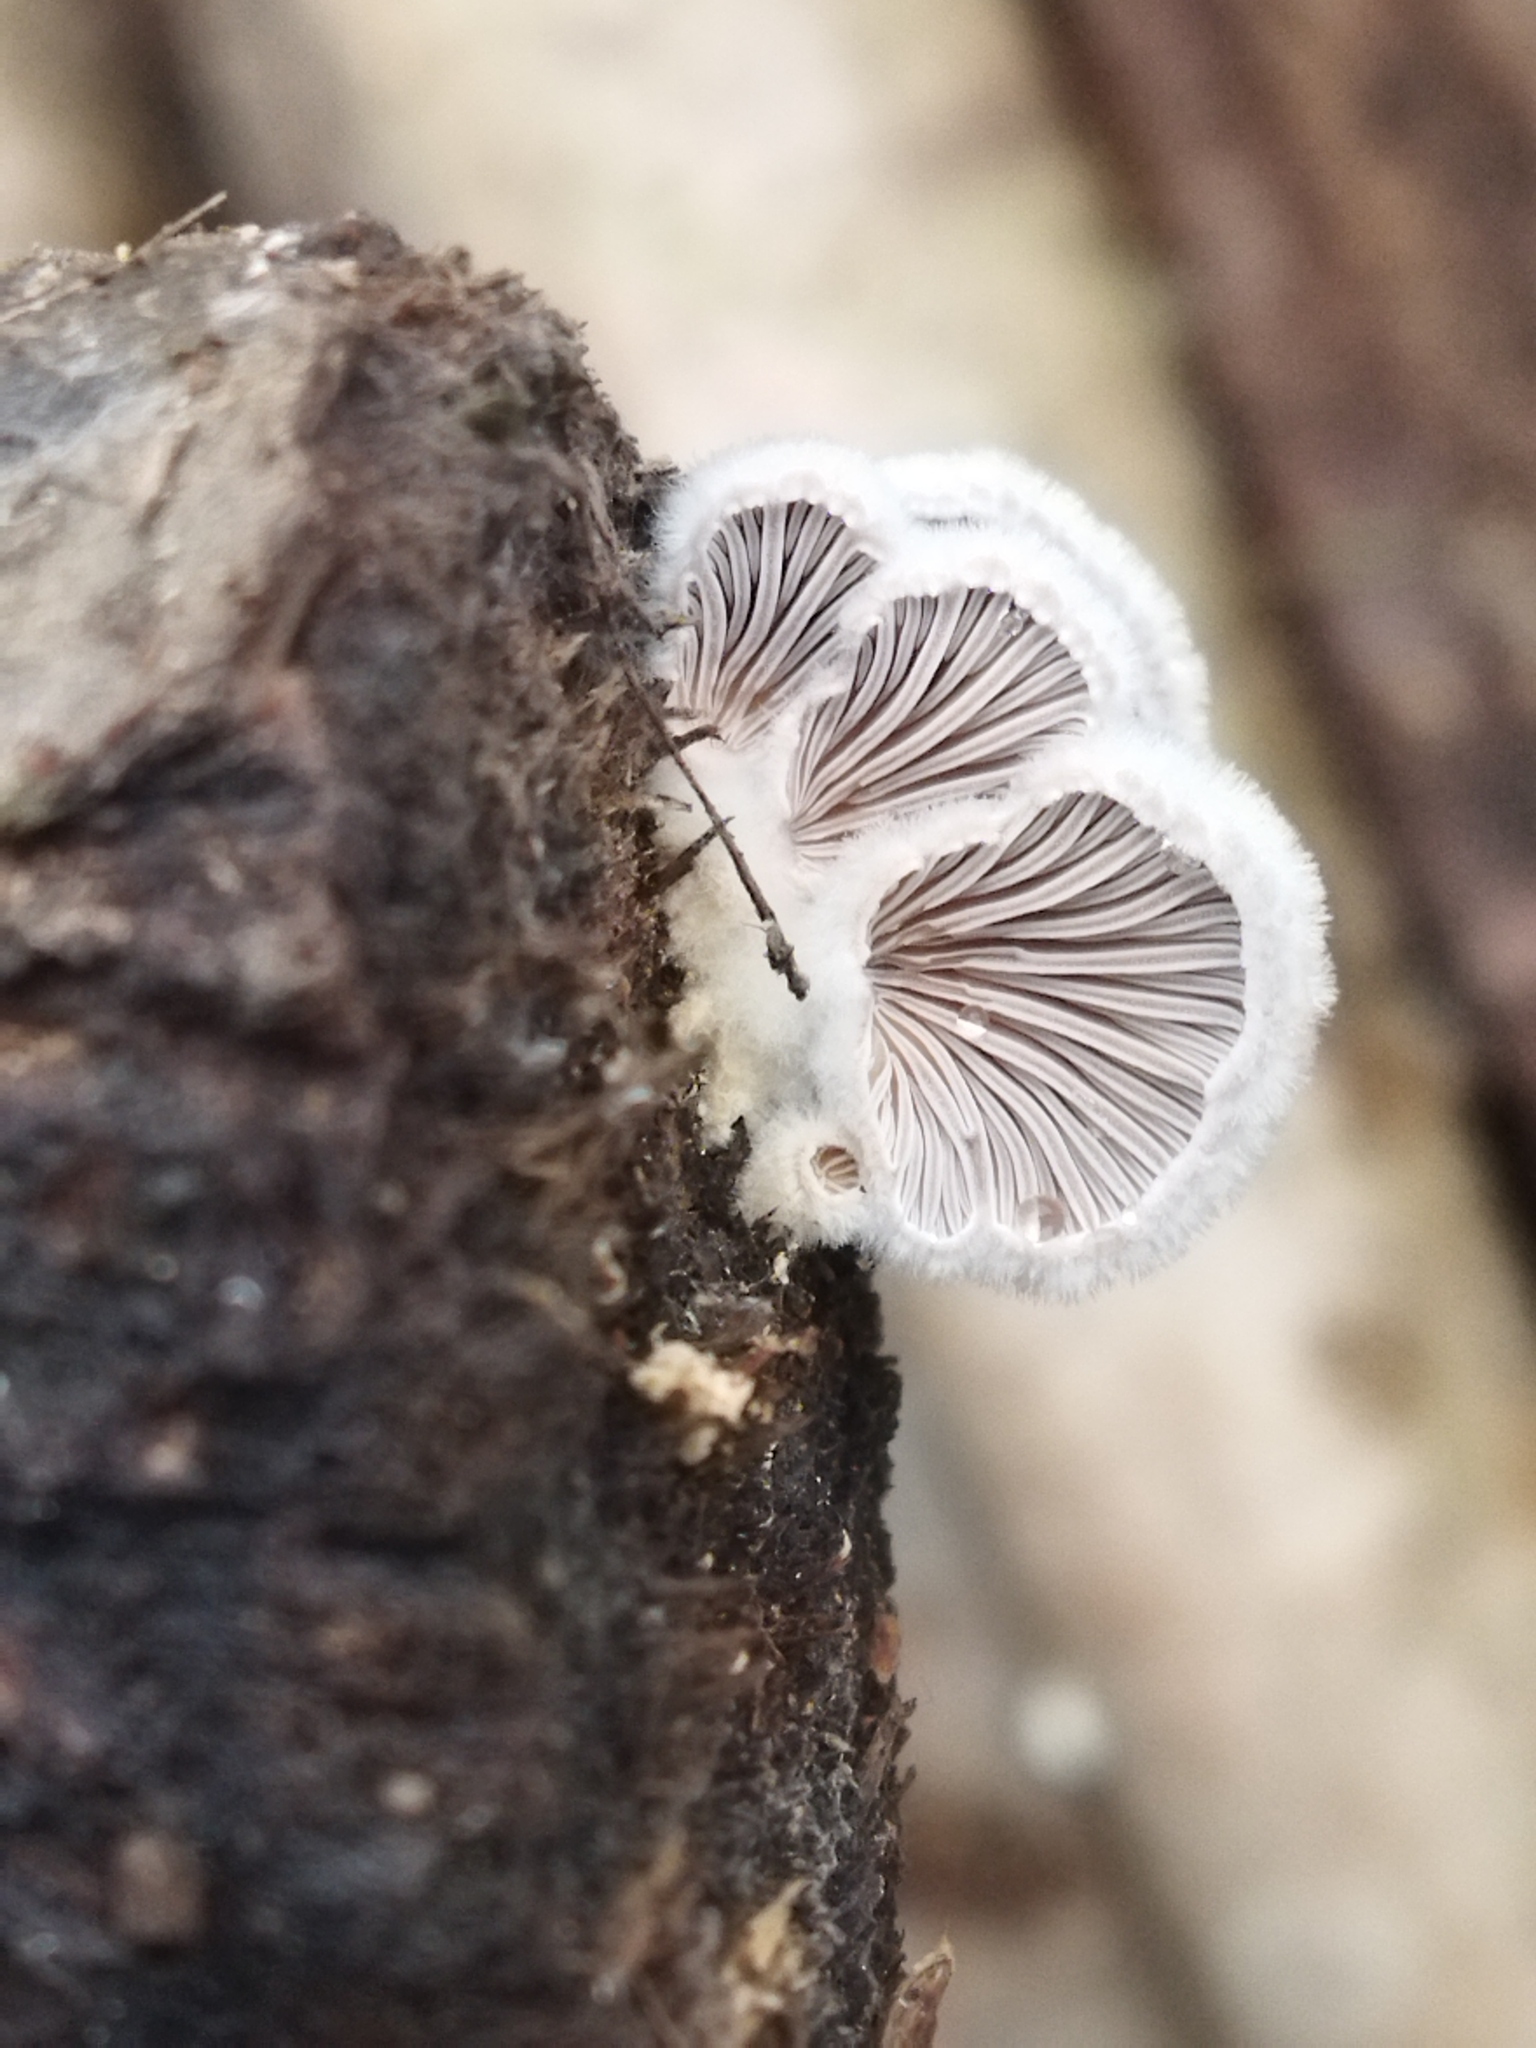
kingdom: Fungi
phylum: Basidiomycota
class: Agaricomycetes
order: Agaricales
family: Schizophyllaceae
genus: Schizophyllum
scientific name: Schizophyllum commune
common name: Common porecrust
